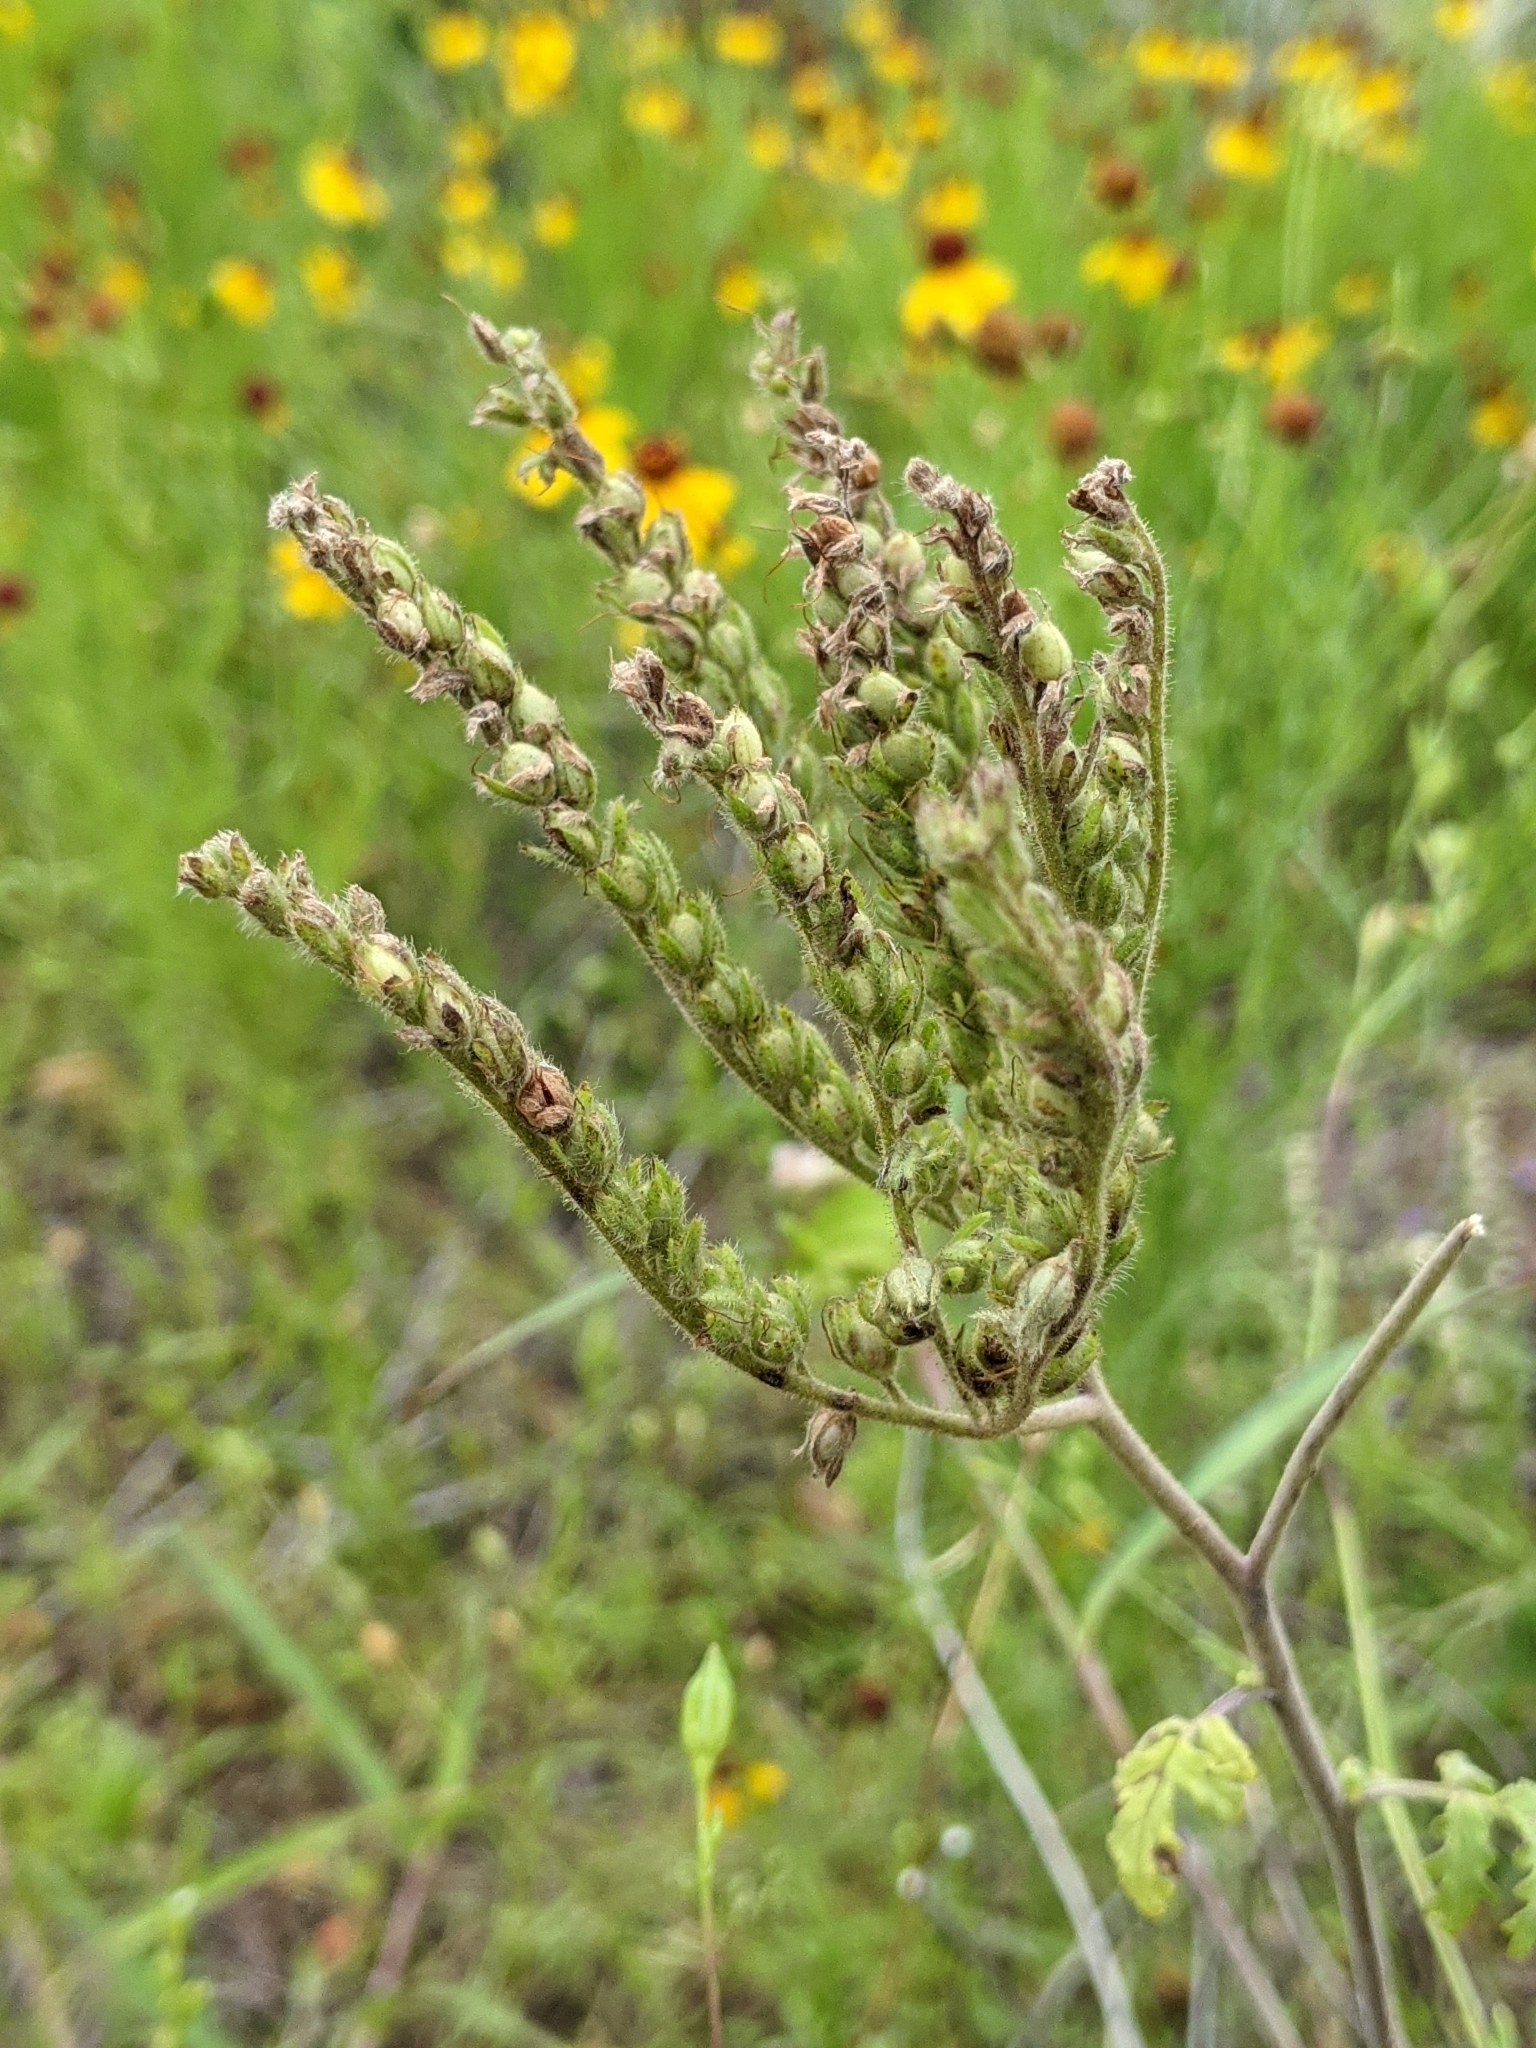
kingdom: Plantae
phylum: Tracheophyta
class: Magnoliopsida
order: Boraginales
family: Hydrophyllaceae
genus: Phacelia
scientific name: Phacelia congesta
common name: Blue curls
